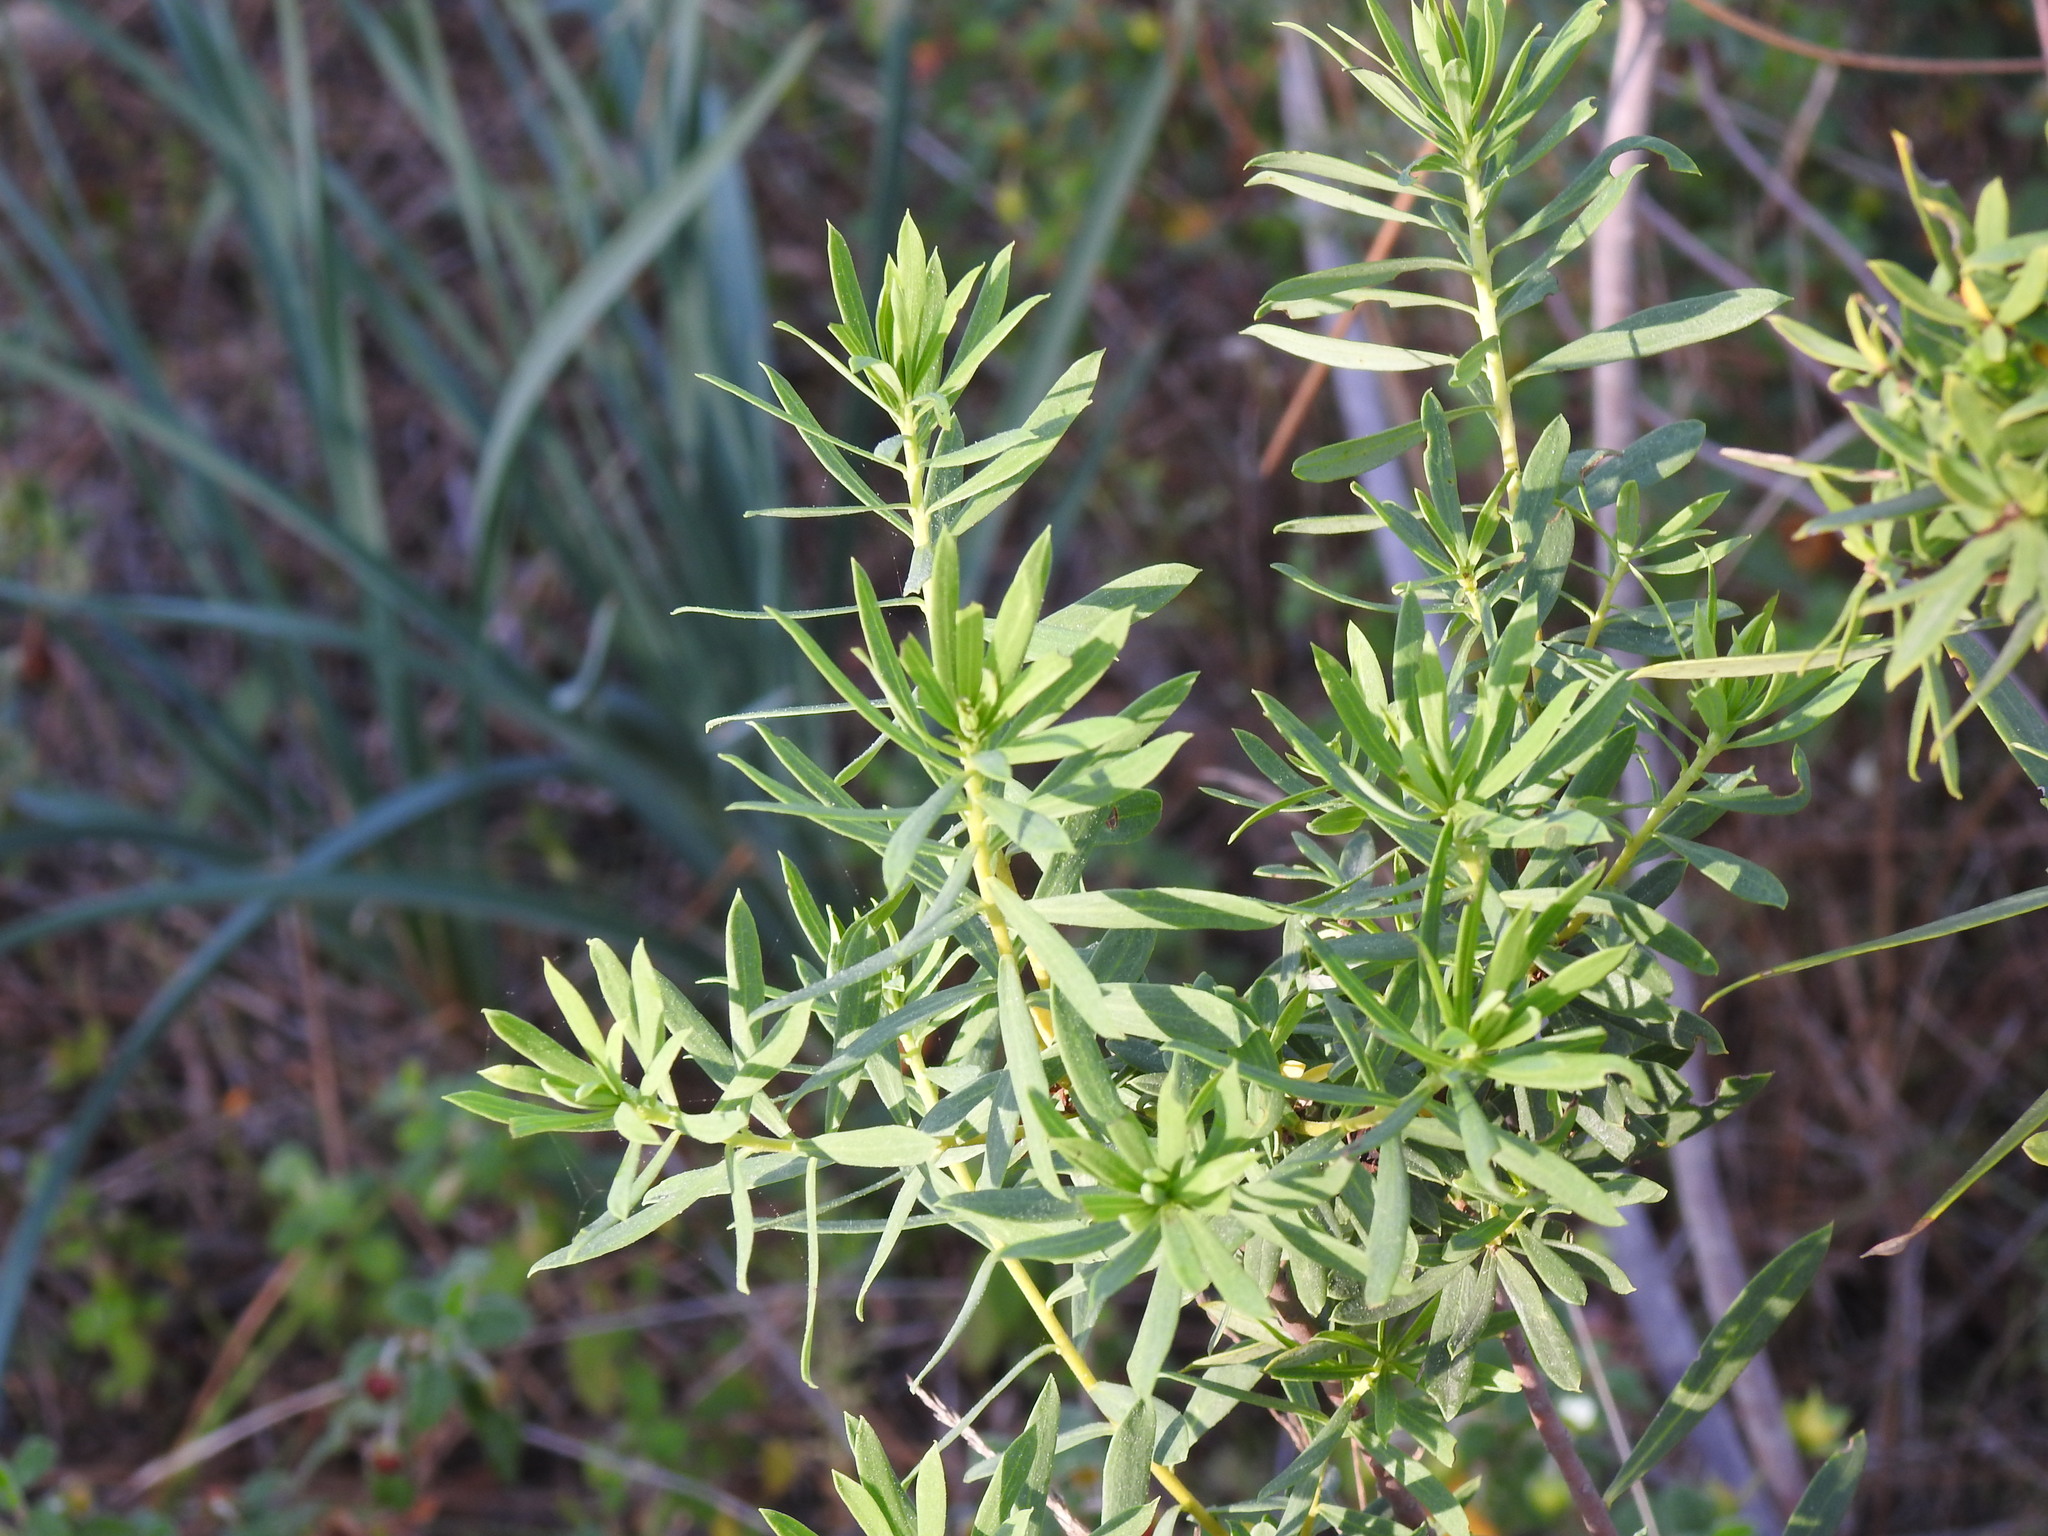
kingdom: Plantae
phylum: Tracheophyta
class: Magnoliopsida
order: Malvales
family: Thymelaeaceae
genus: Daphne
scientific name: Daphne gnidium
